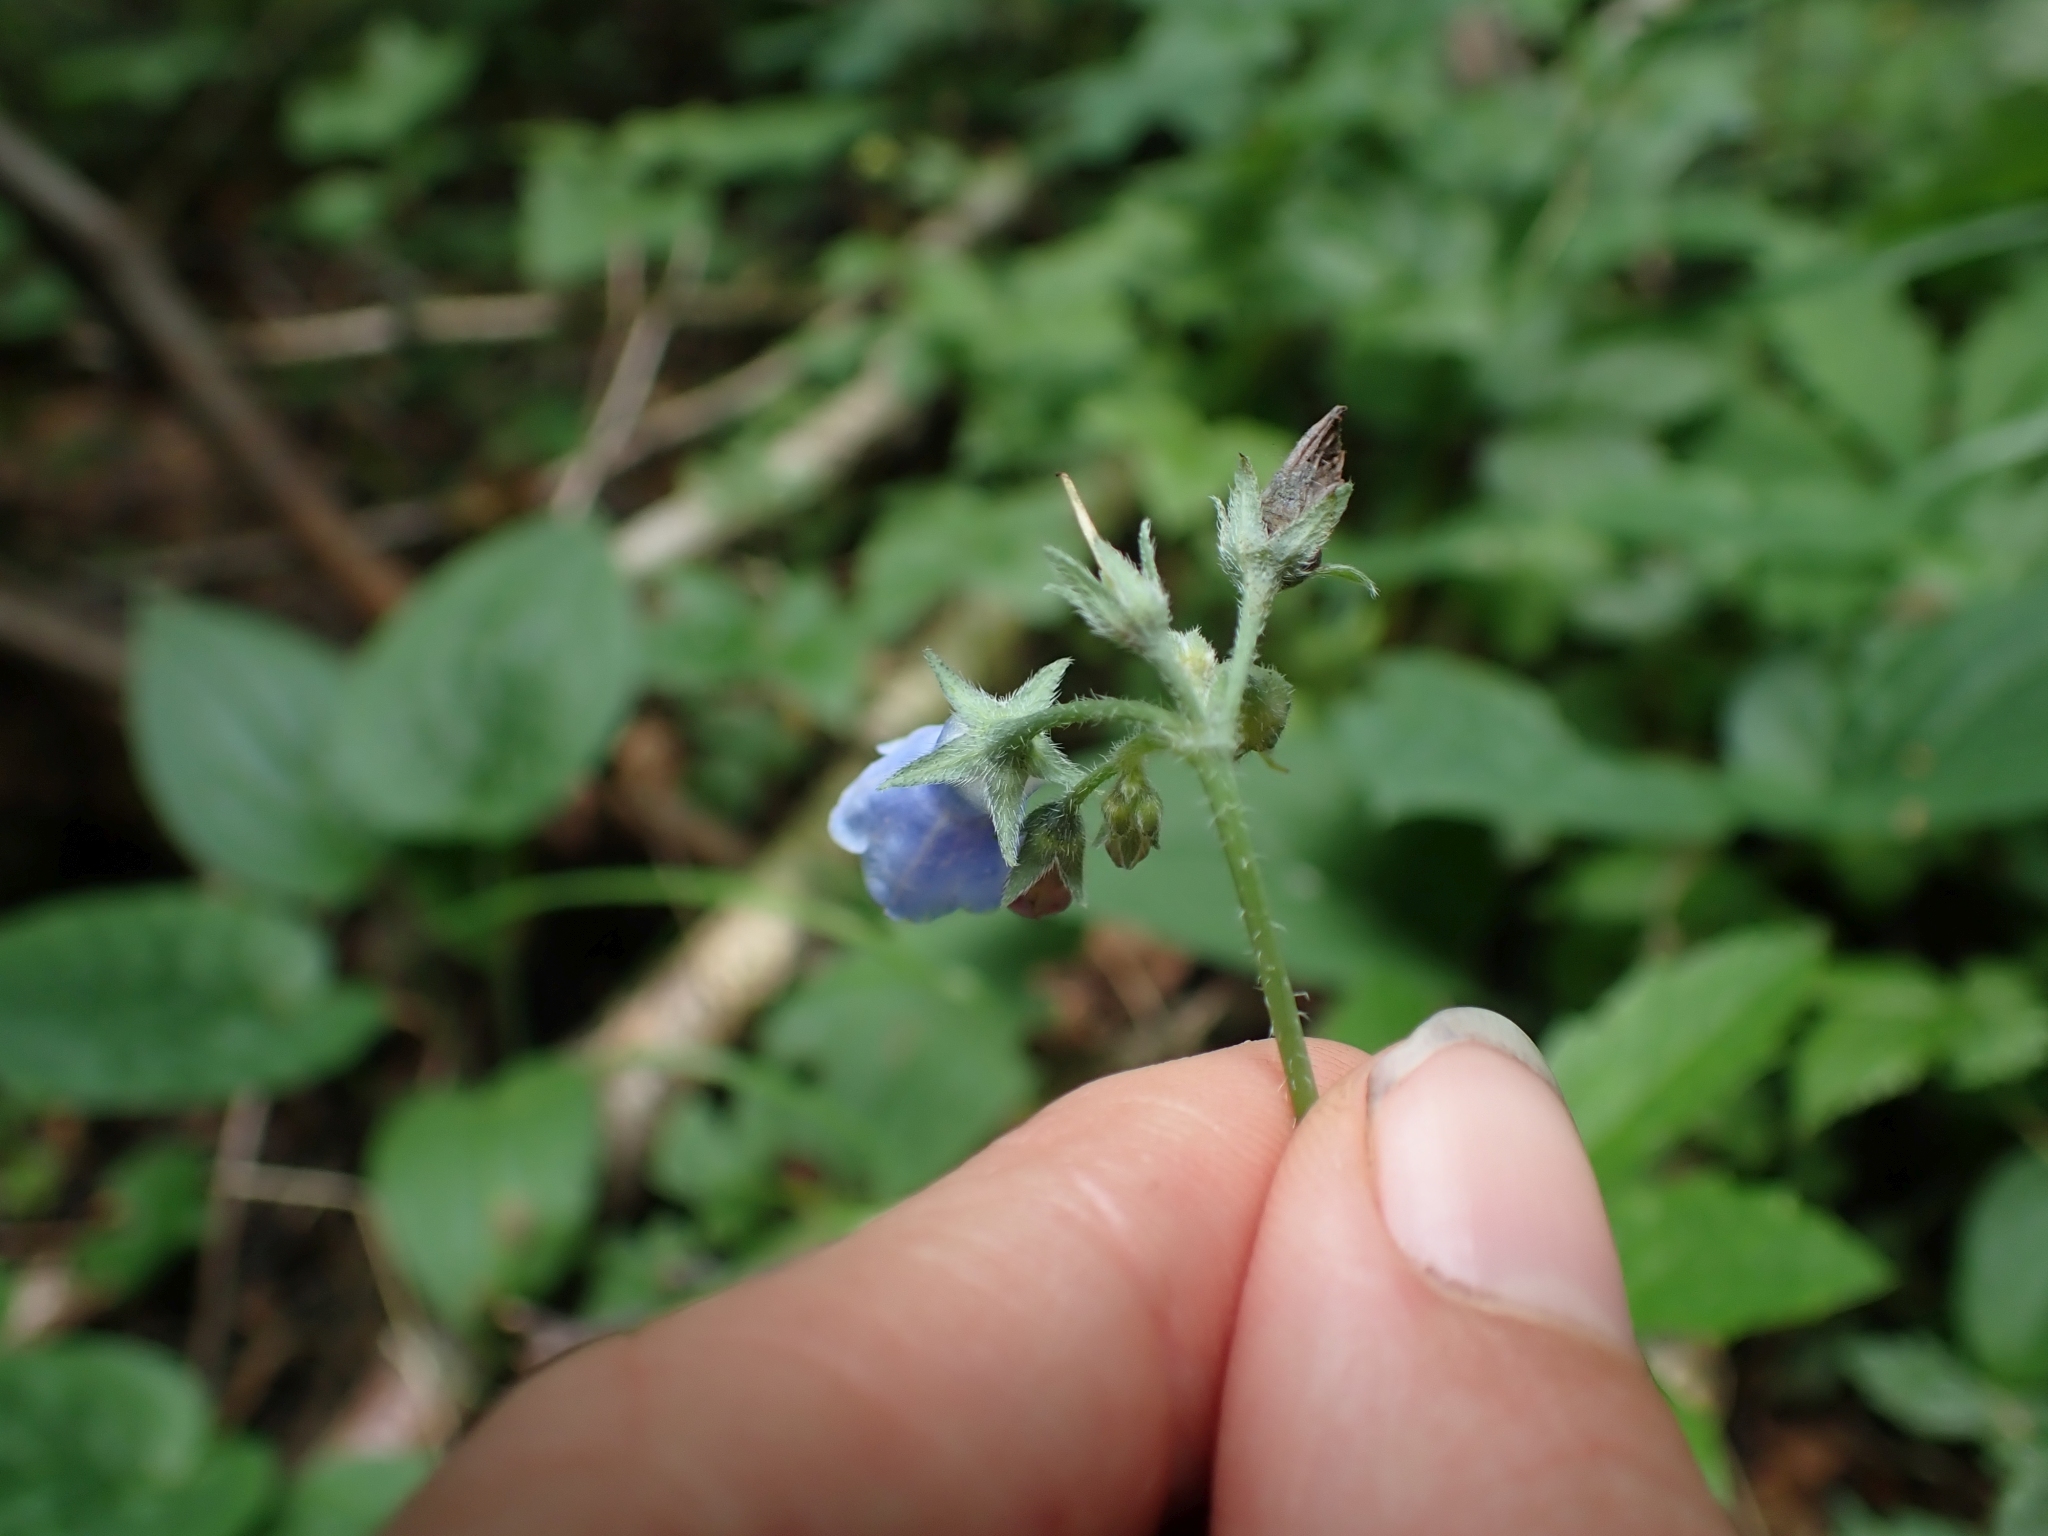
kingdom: Plantae
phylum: Tracheophyta
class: Magnoliopsida
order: Boraginales
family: Boraginaceae
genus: Mertensia
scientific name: Mertensia paniculata
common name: Panicled bluebells
